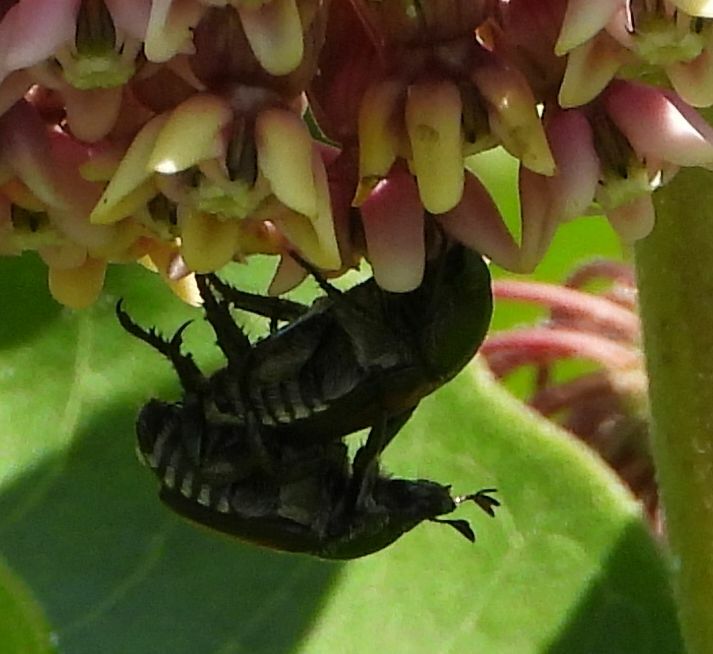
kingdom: Animalia
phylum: Arthropoda
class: Insecta
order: Coleoptera
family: Scarabaeidae
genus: Popillia
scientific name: Popillia japonica
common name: Japanese beetle
